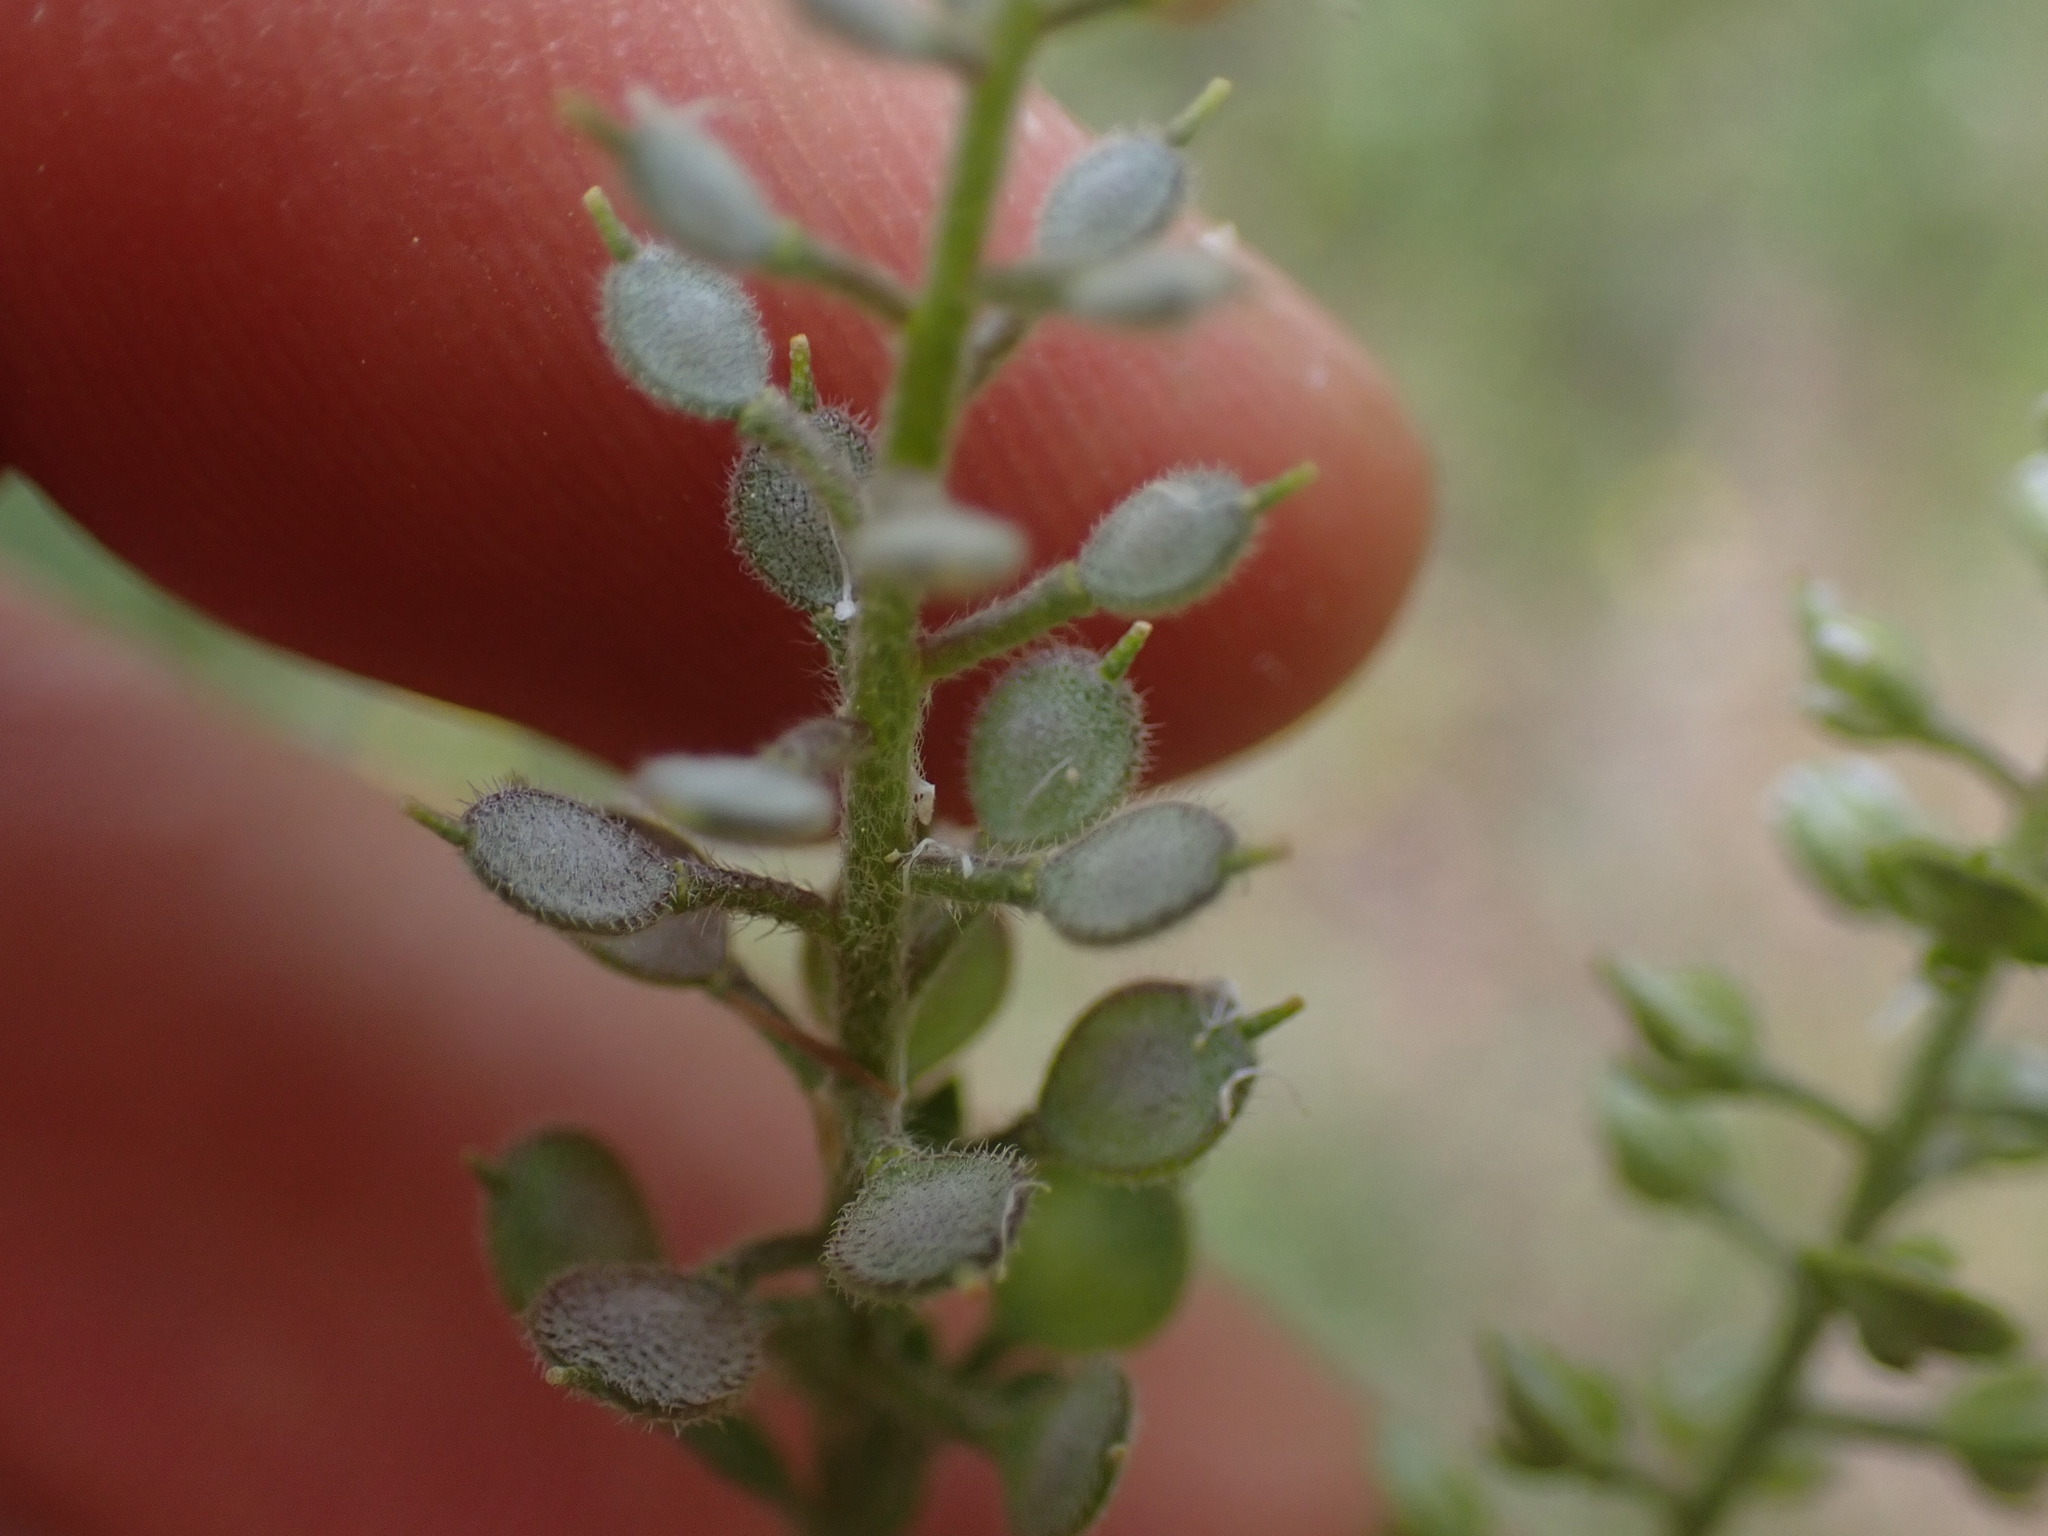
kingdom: Plantae
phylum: Tracheophyta
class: Magnoliopsida
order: Brassicales
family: Brassicaceae
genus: Alyssum
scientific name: Alyssum simplex
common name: Alyssum
